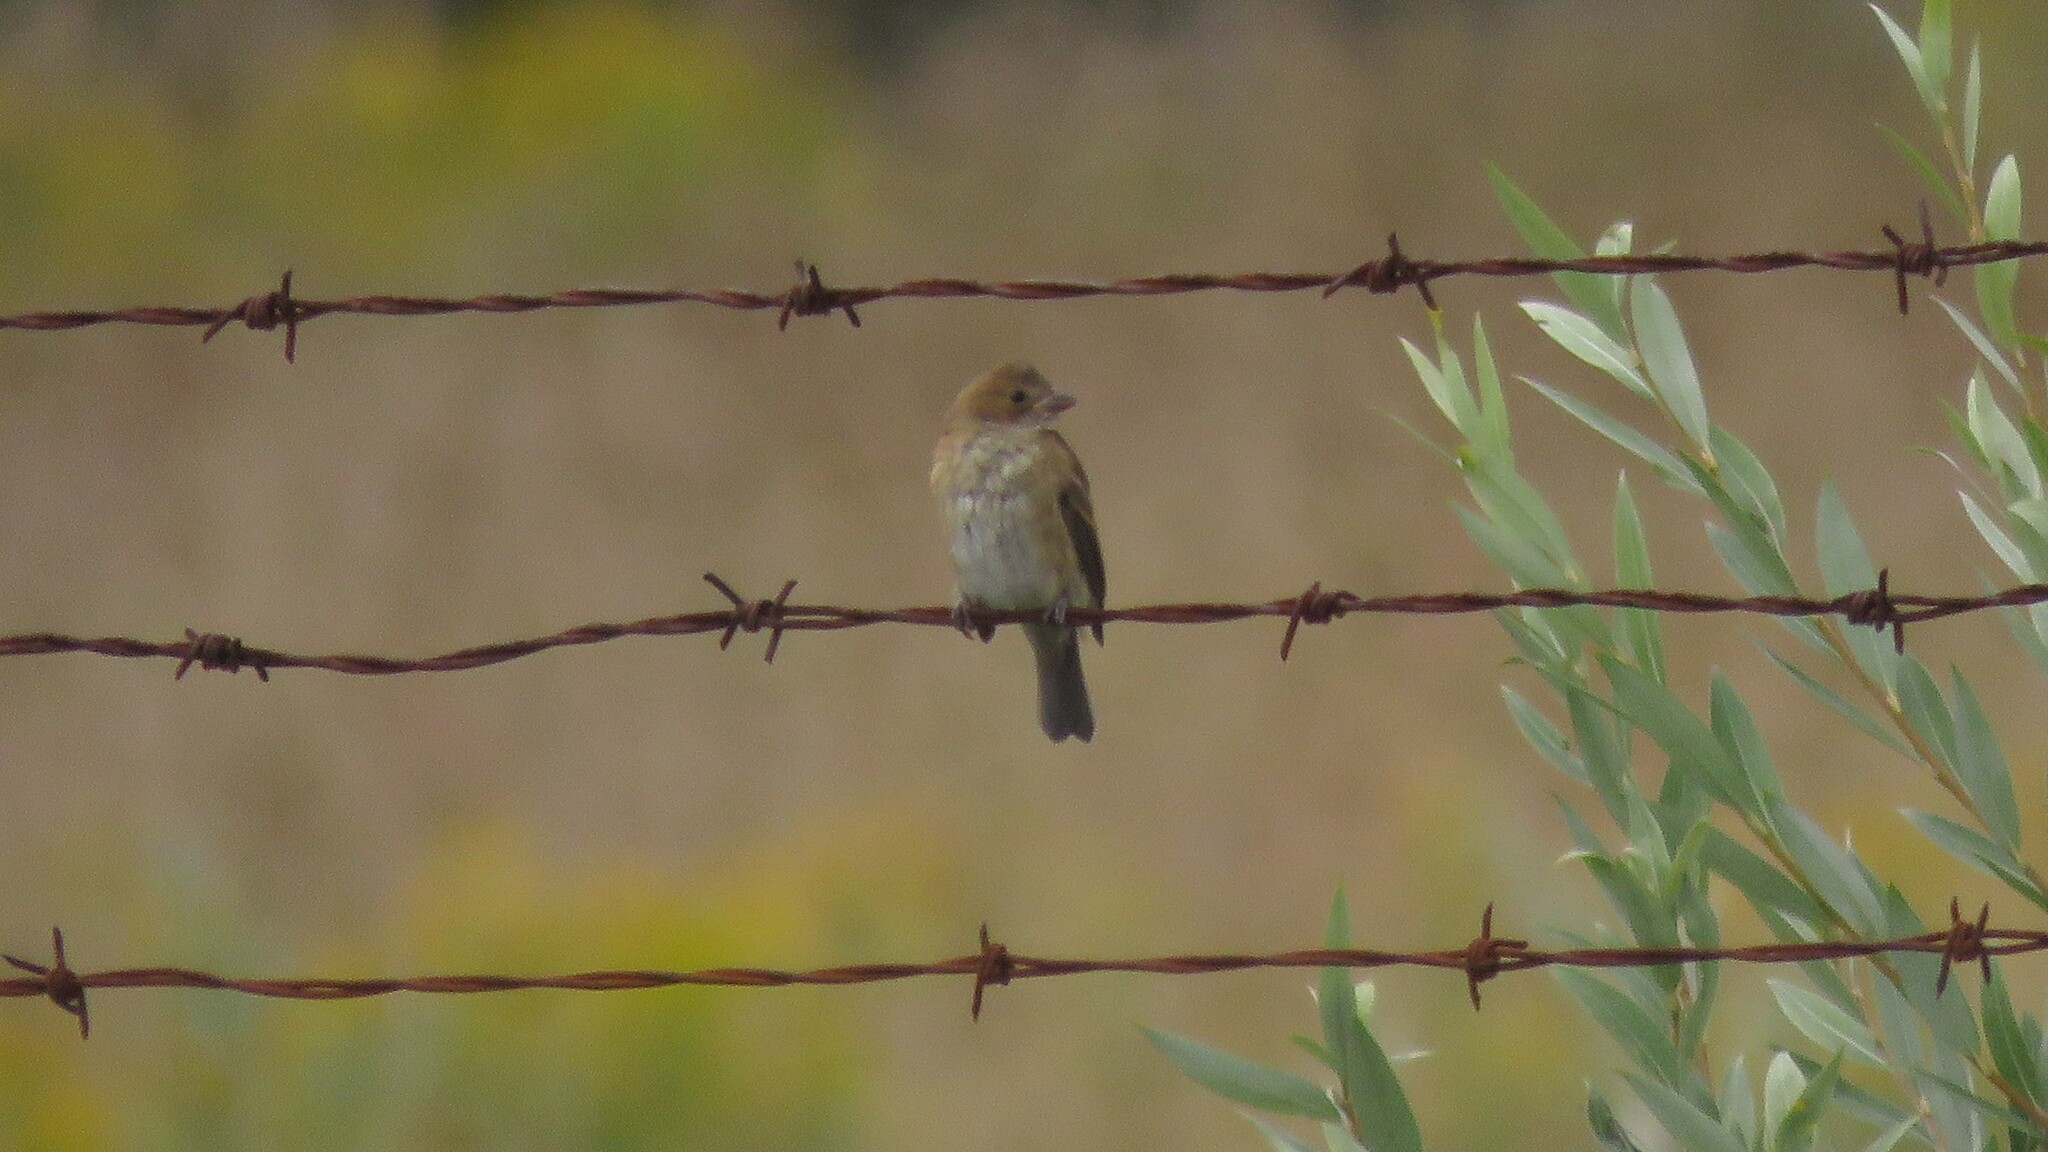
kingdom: Animalia
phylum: Chordata
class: Aves
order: Passeriformes
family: Cardinalidae
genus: Passerina
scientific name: Passerina cyanea
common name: Indigo bunting
